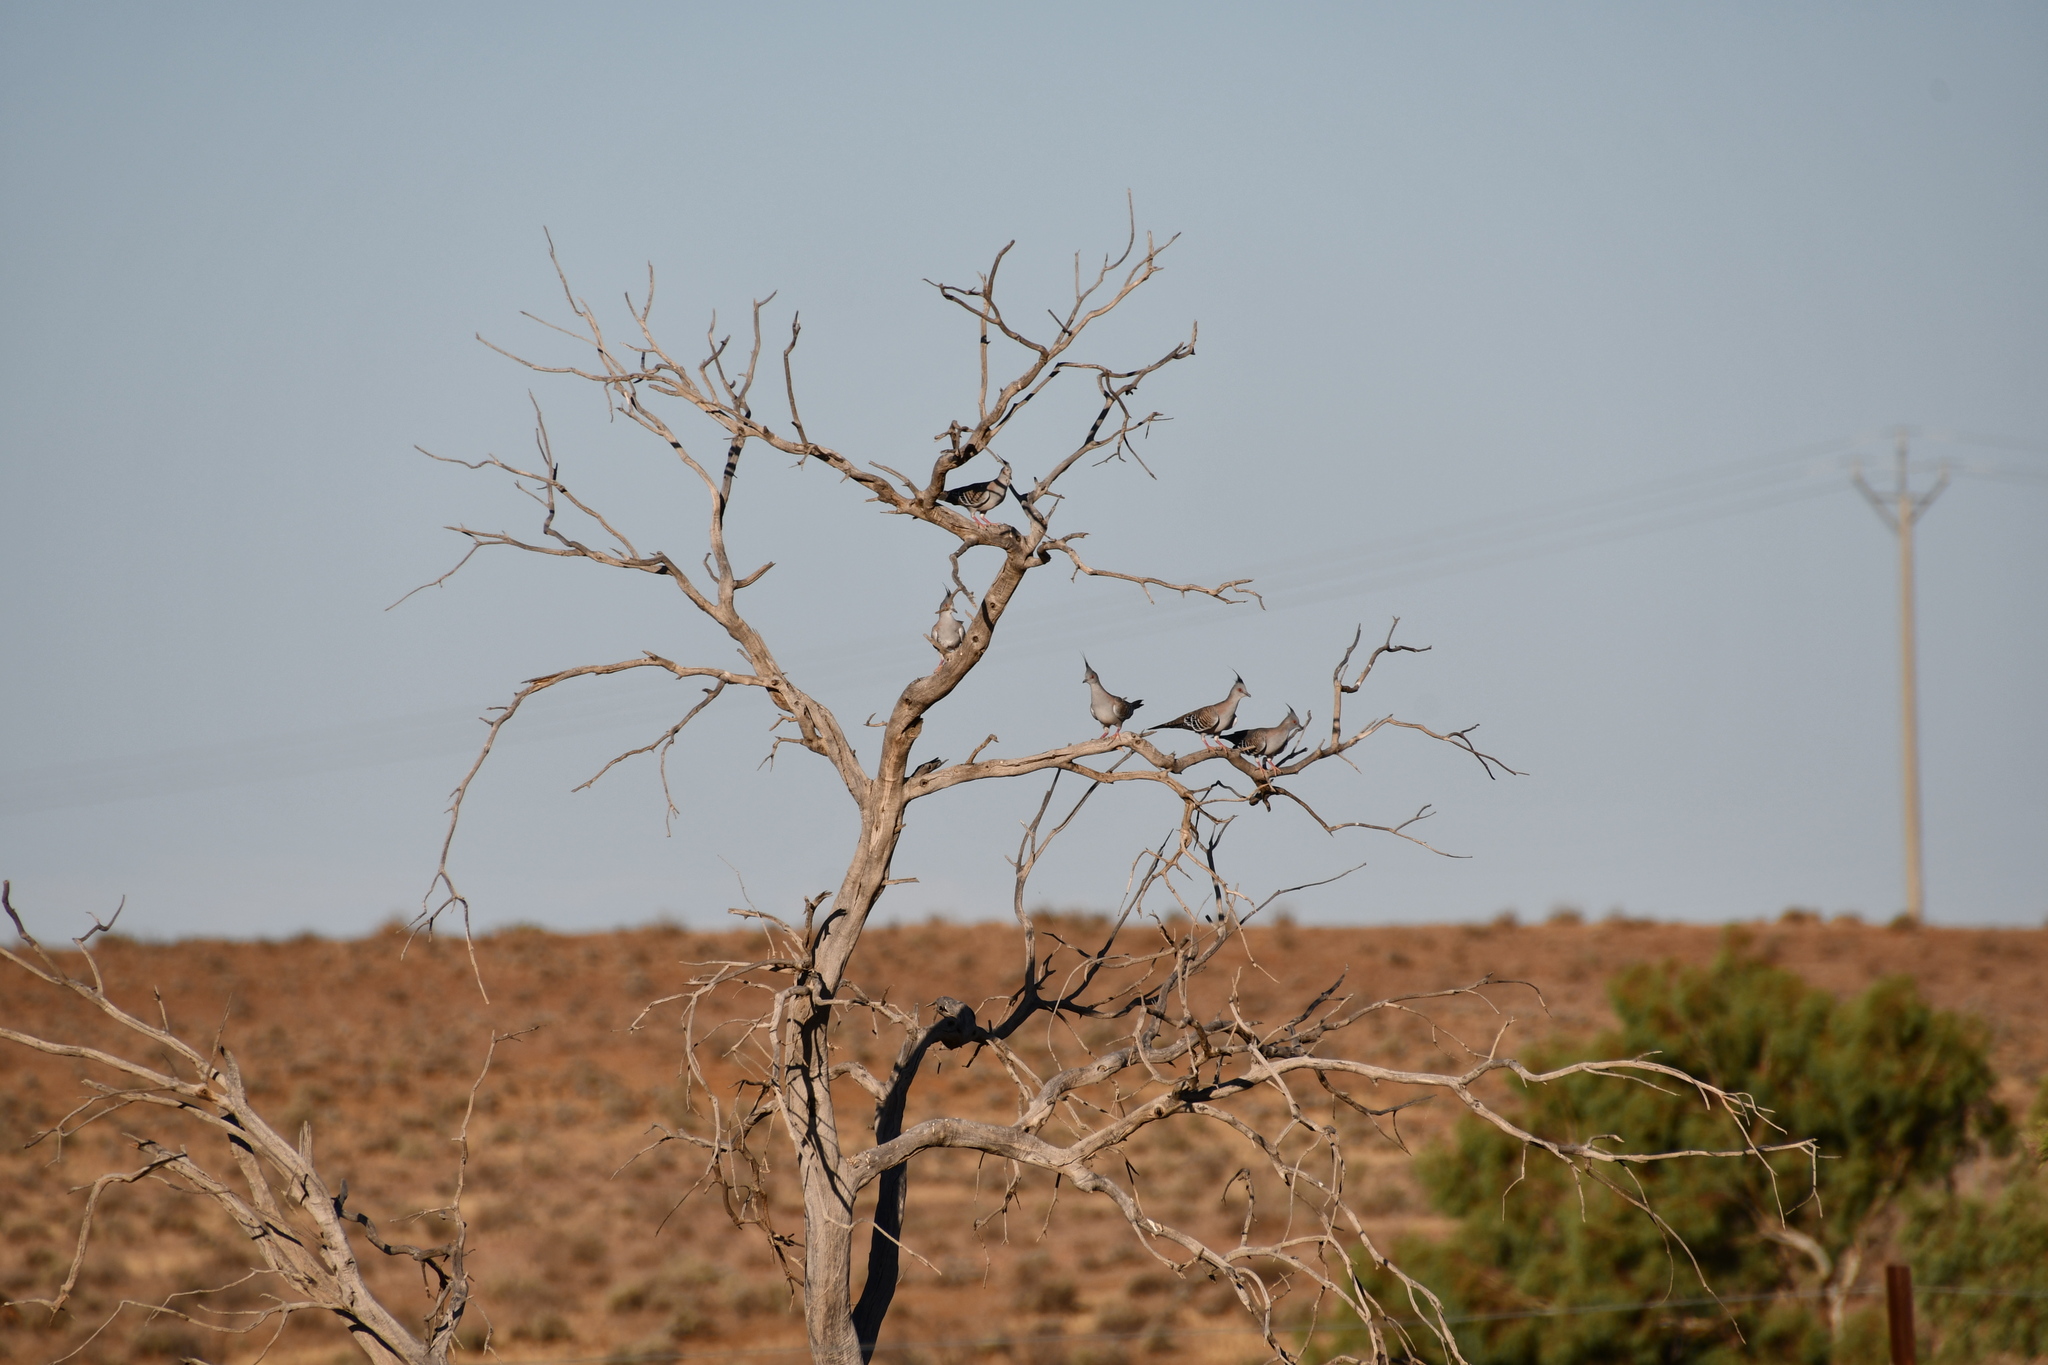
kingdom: Animalia
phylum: Chordata
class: Aves
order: Columbiformes
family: Columbidae
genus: Ocyphaps
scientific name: Ocyphaps lophotes
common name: Crested pigeon
